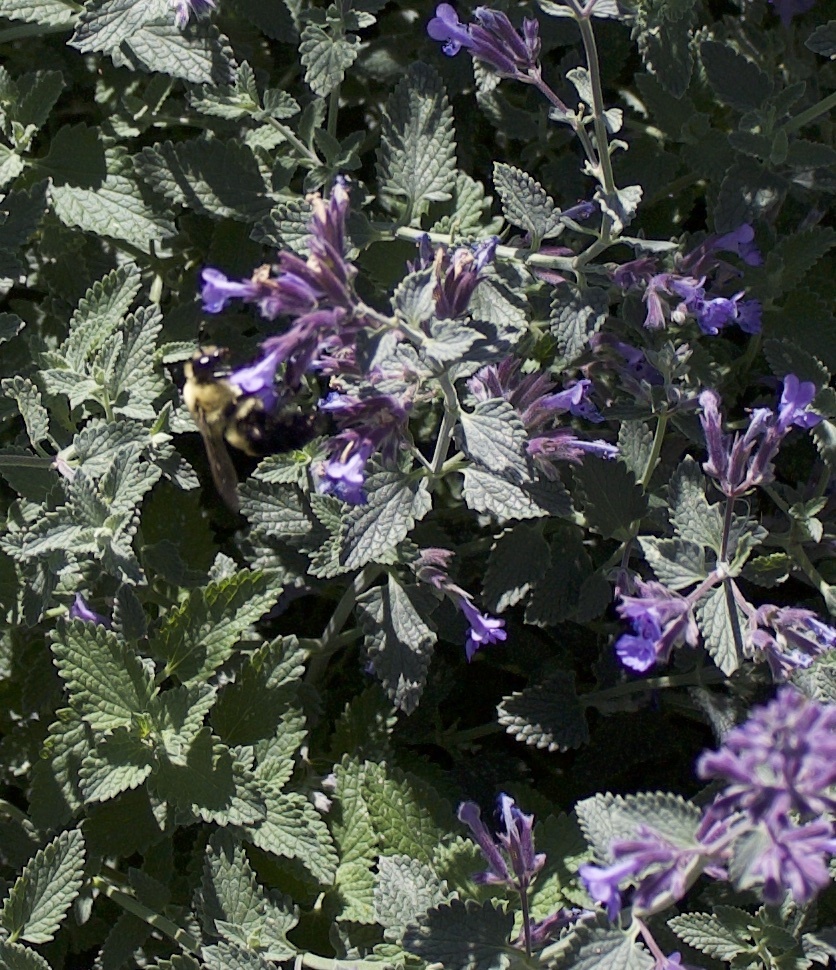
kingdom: Animalia
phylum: Arthropoda
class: Insecta
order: Hymenoptera
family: Apidae
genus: Bombus
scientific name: Bombus griseocollis
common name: Brown-belted bumble bee
